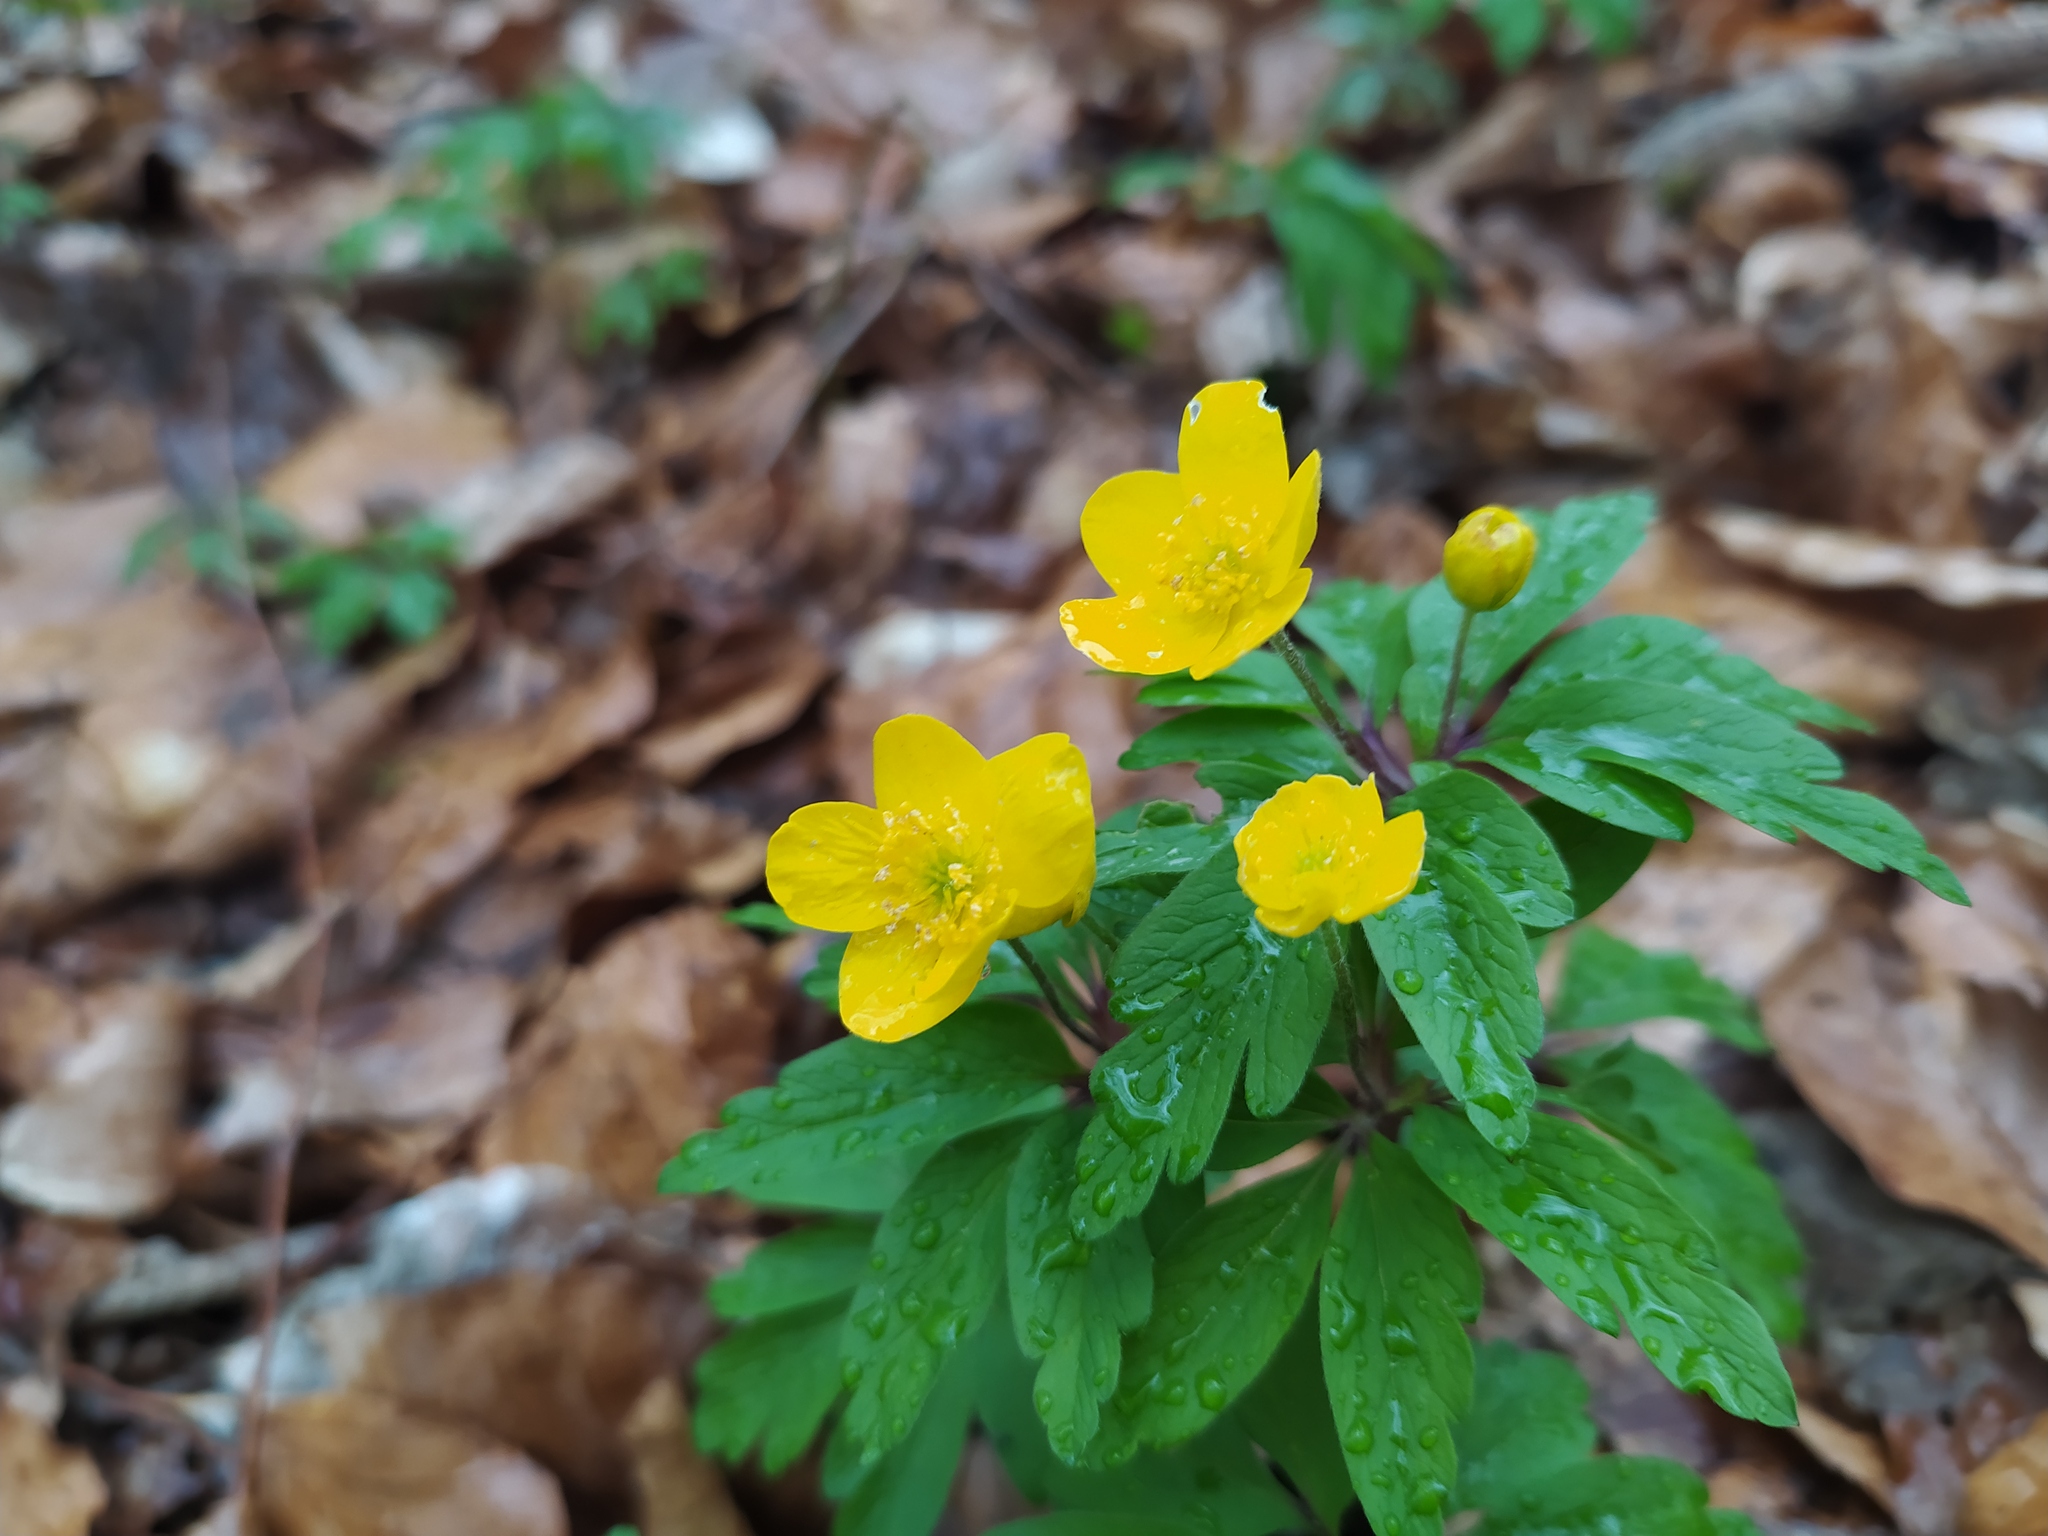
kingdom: Plantae
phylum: Tracheophyta
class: Magnoliopsida
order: Ranunculales
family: Ranunculaceae
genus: Anemone
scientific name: Anemone ranunculoides
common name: Yellow anemone
